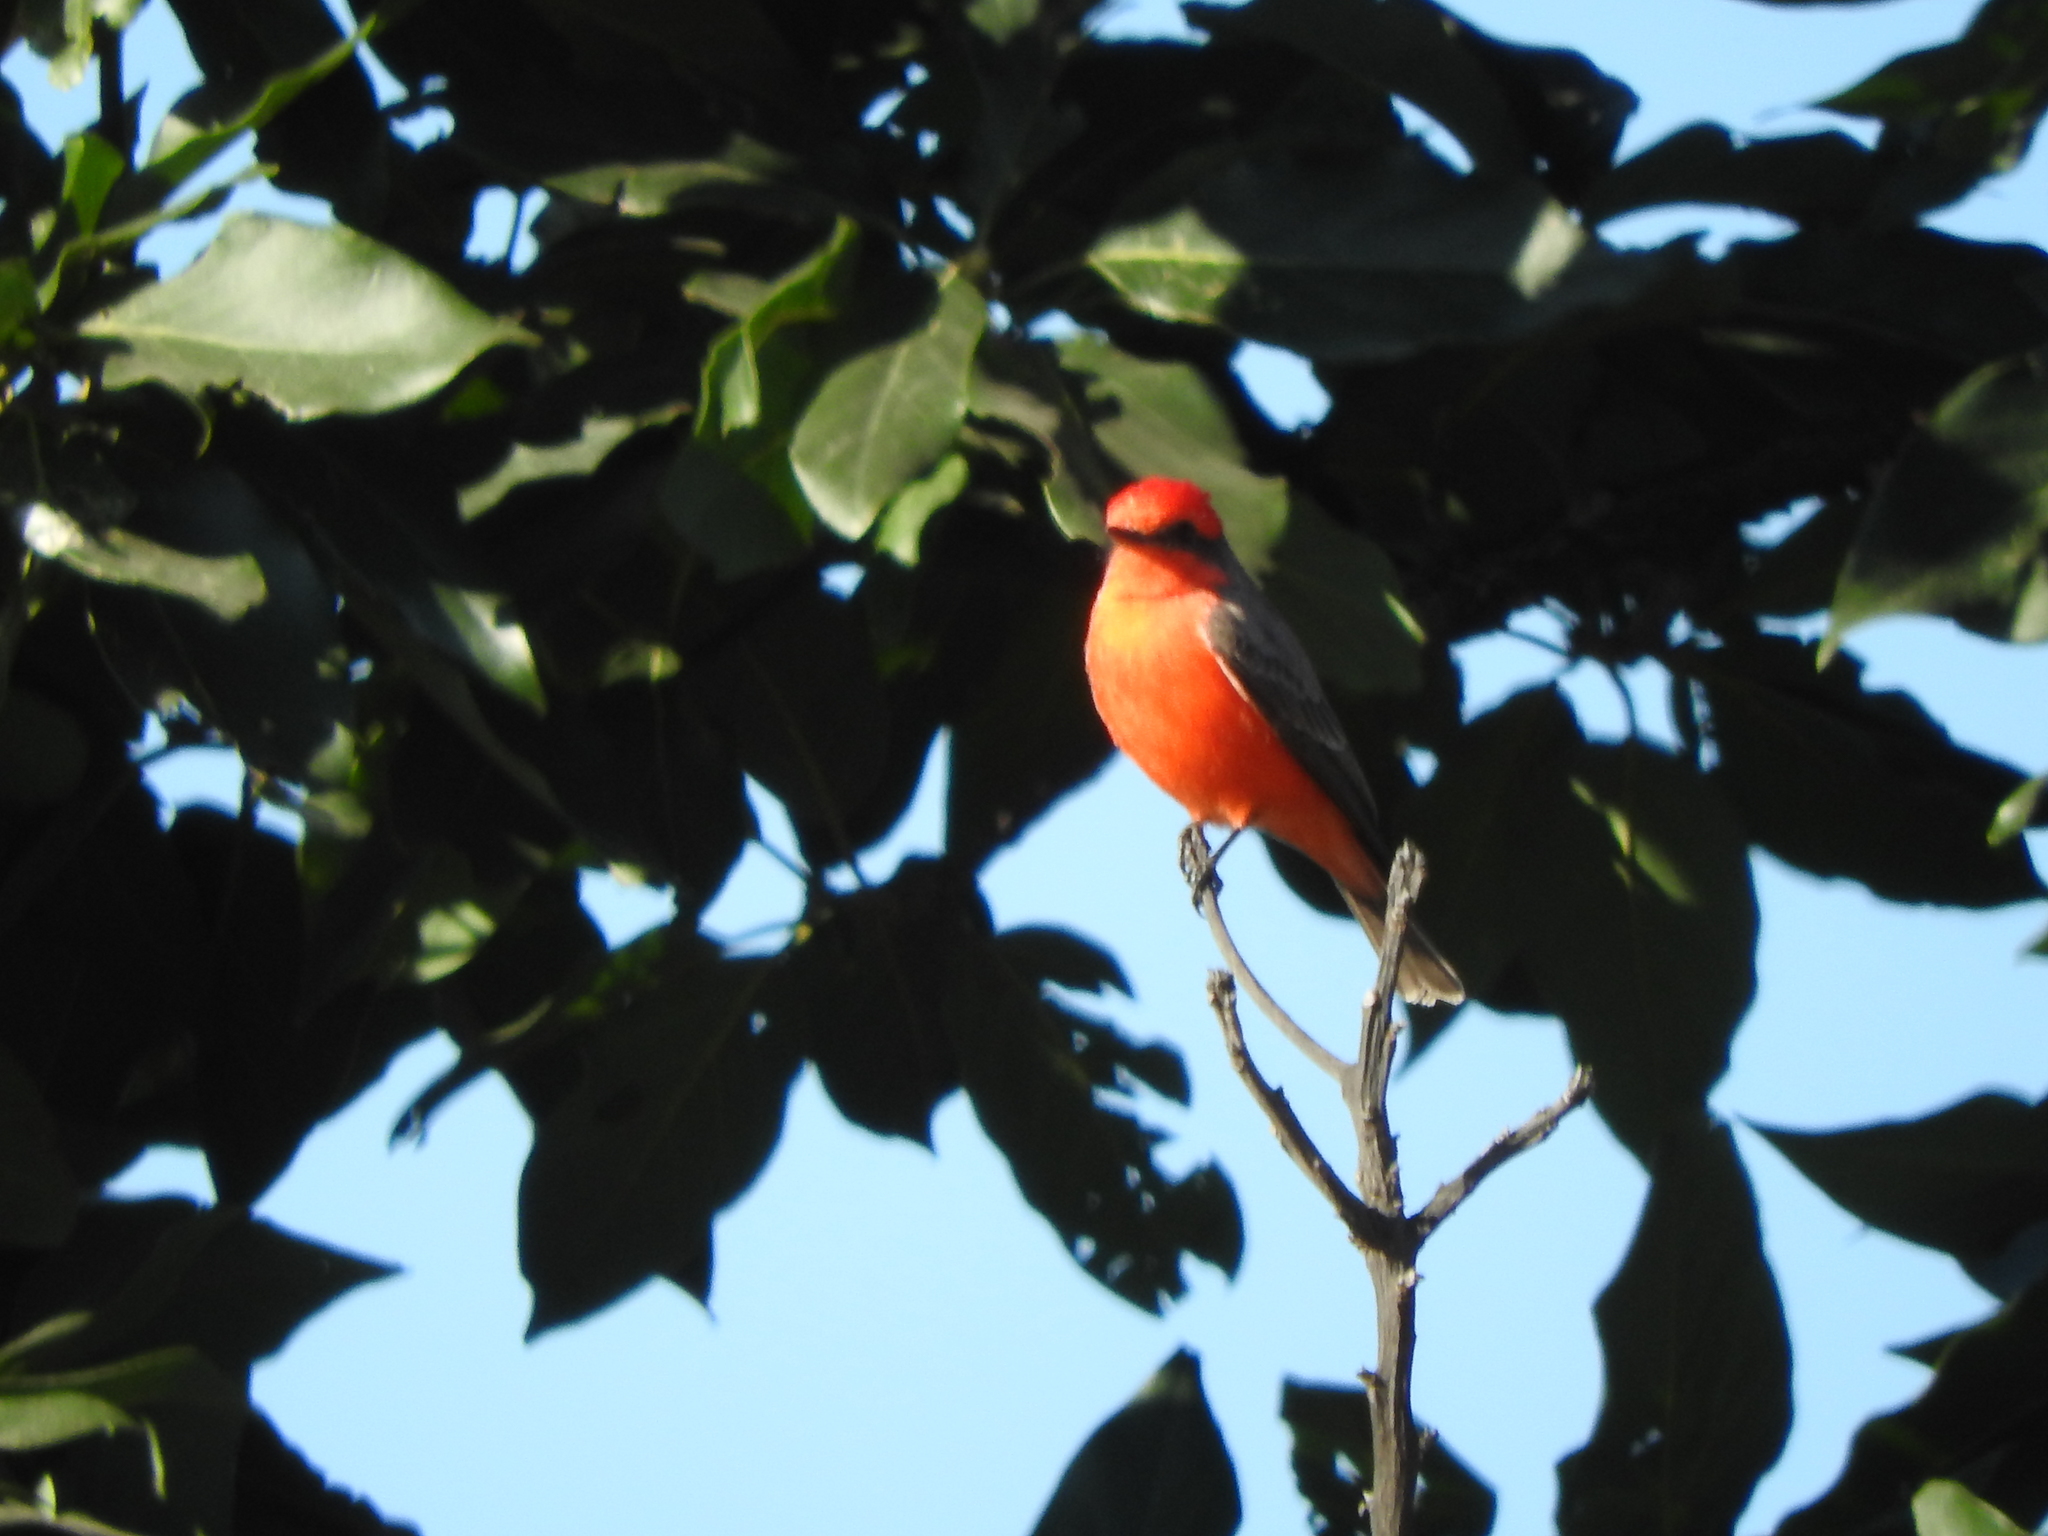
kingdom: Animalia
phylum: Chordata
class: Aves
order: Passeriformes
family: Tyrannidae
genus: Pyrocephalus
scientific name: Pyrocephalus rubinus
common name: Vermilion flycatcher
